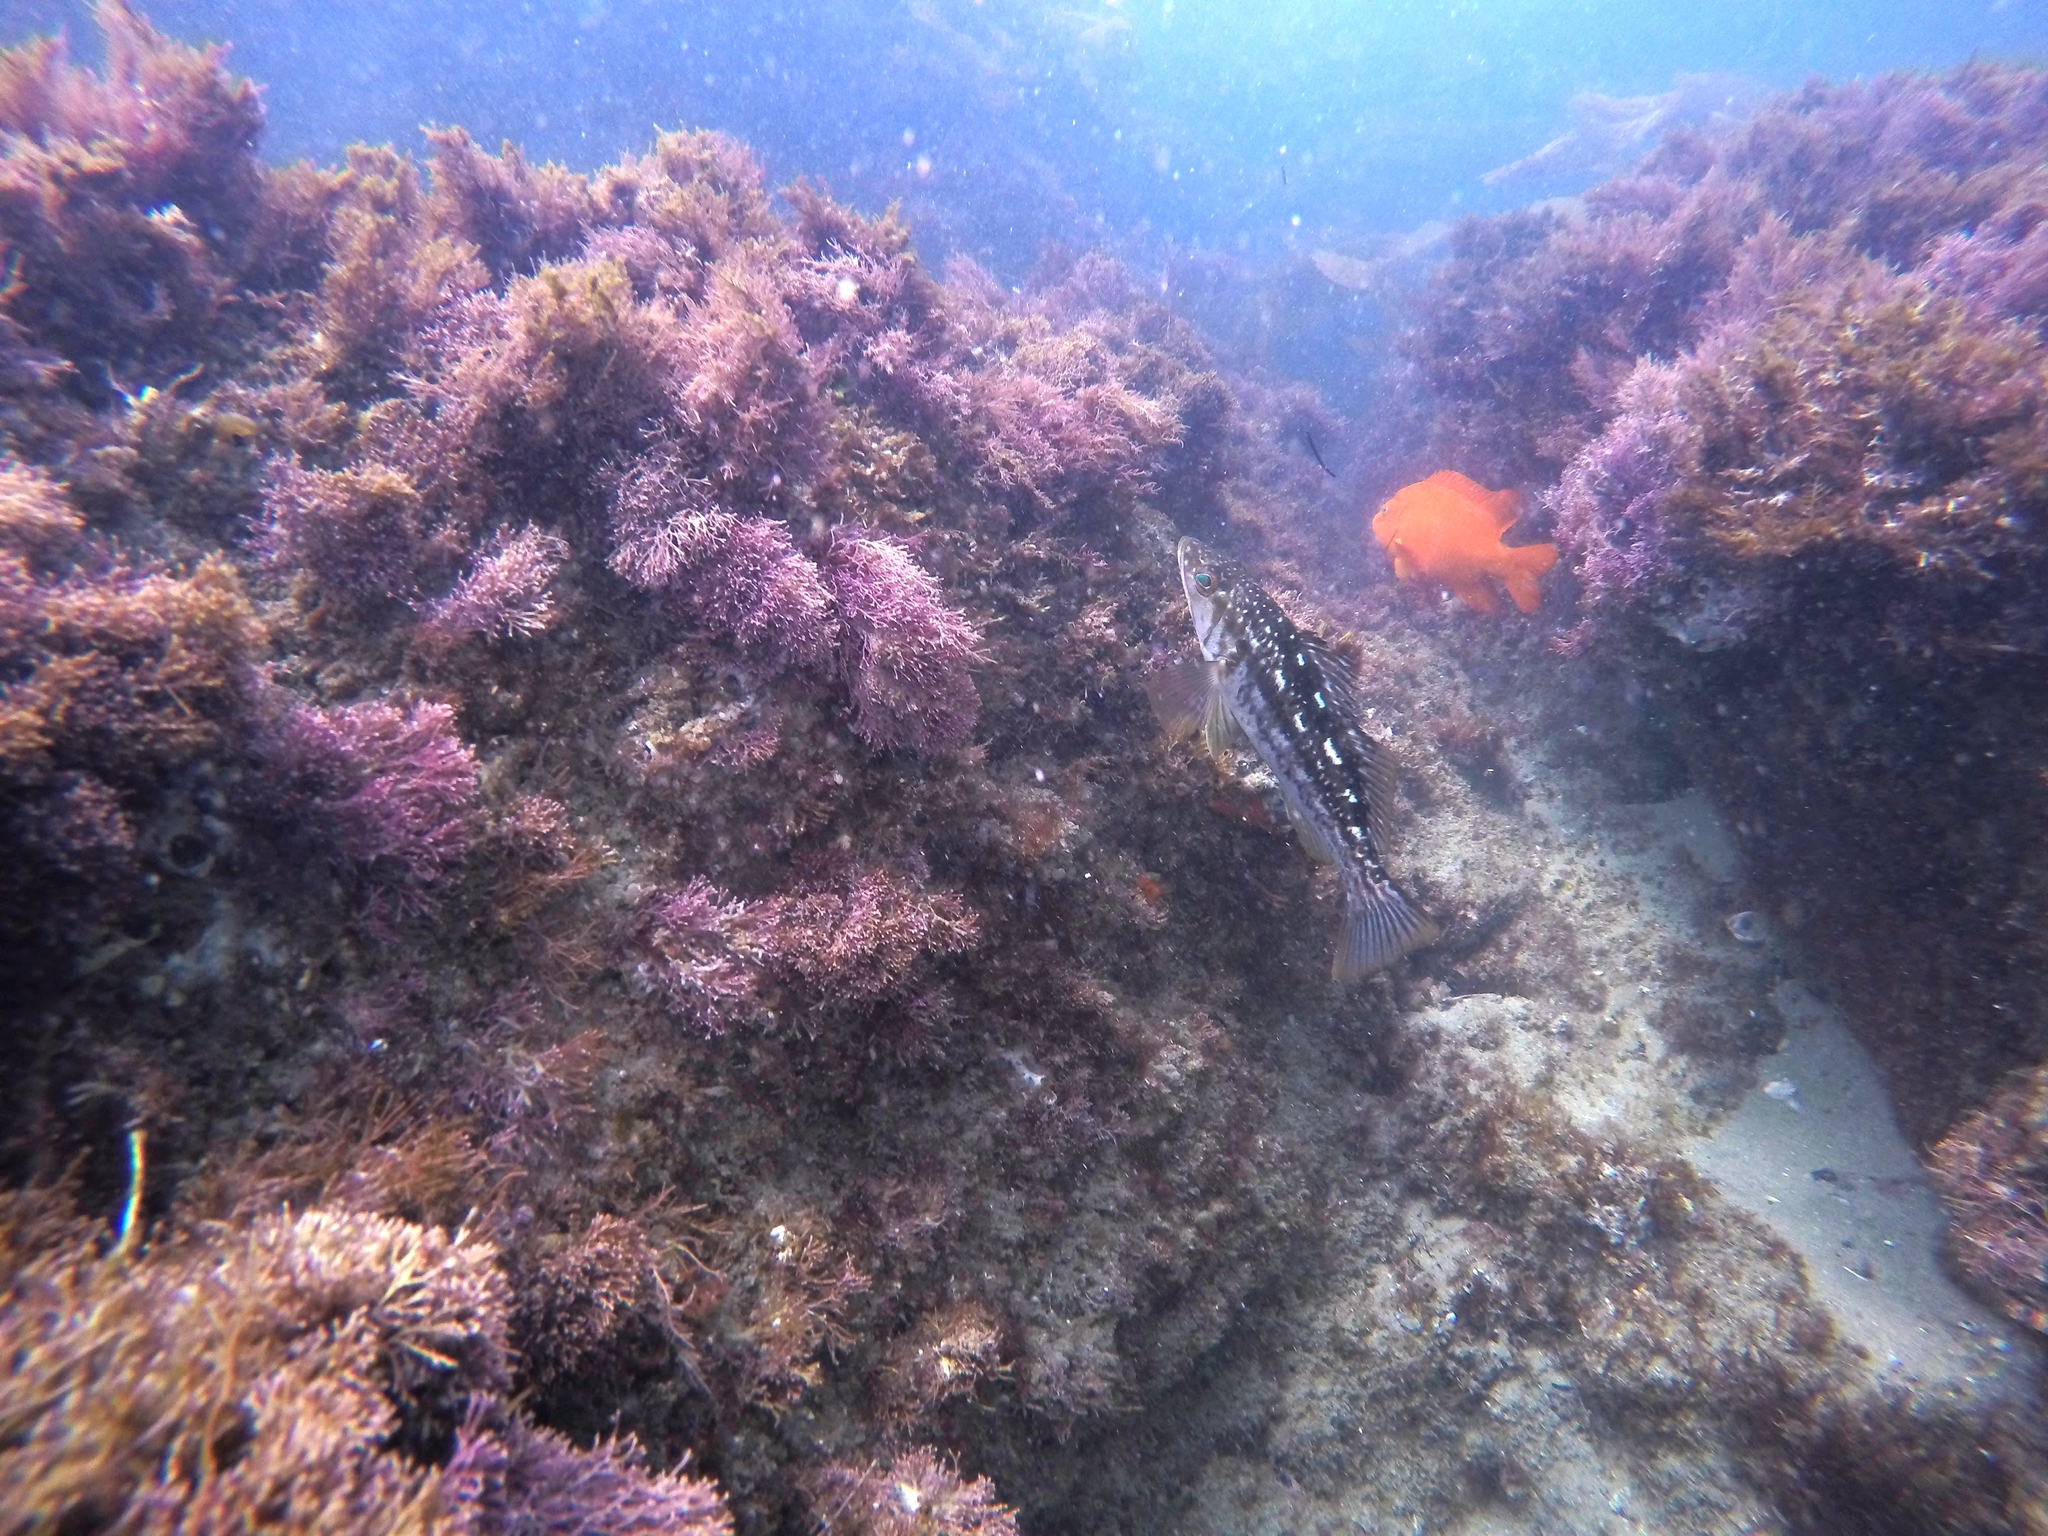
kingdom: Animalia
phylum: Chordata
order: Perciformes
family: Serranidae
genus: Paralabrax
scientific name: Paralabrax clathratus
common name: Kelp bass
